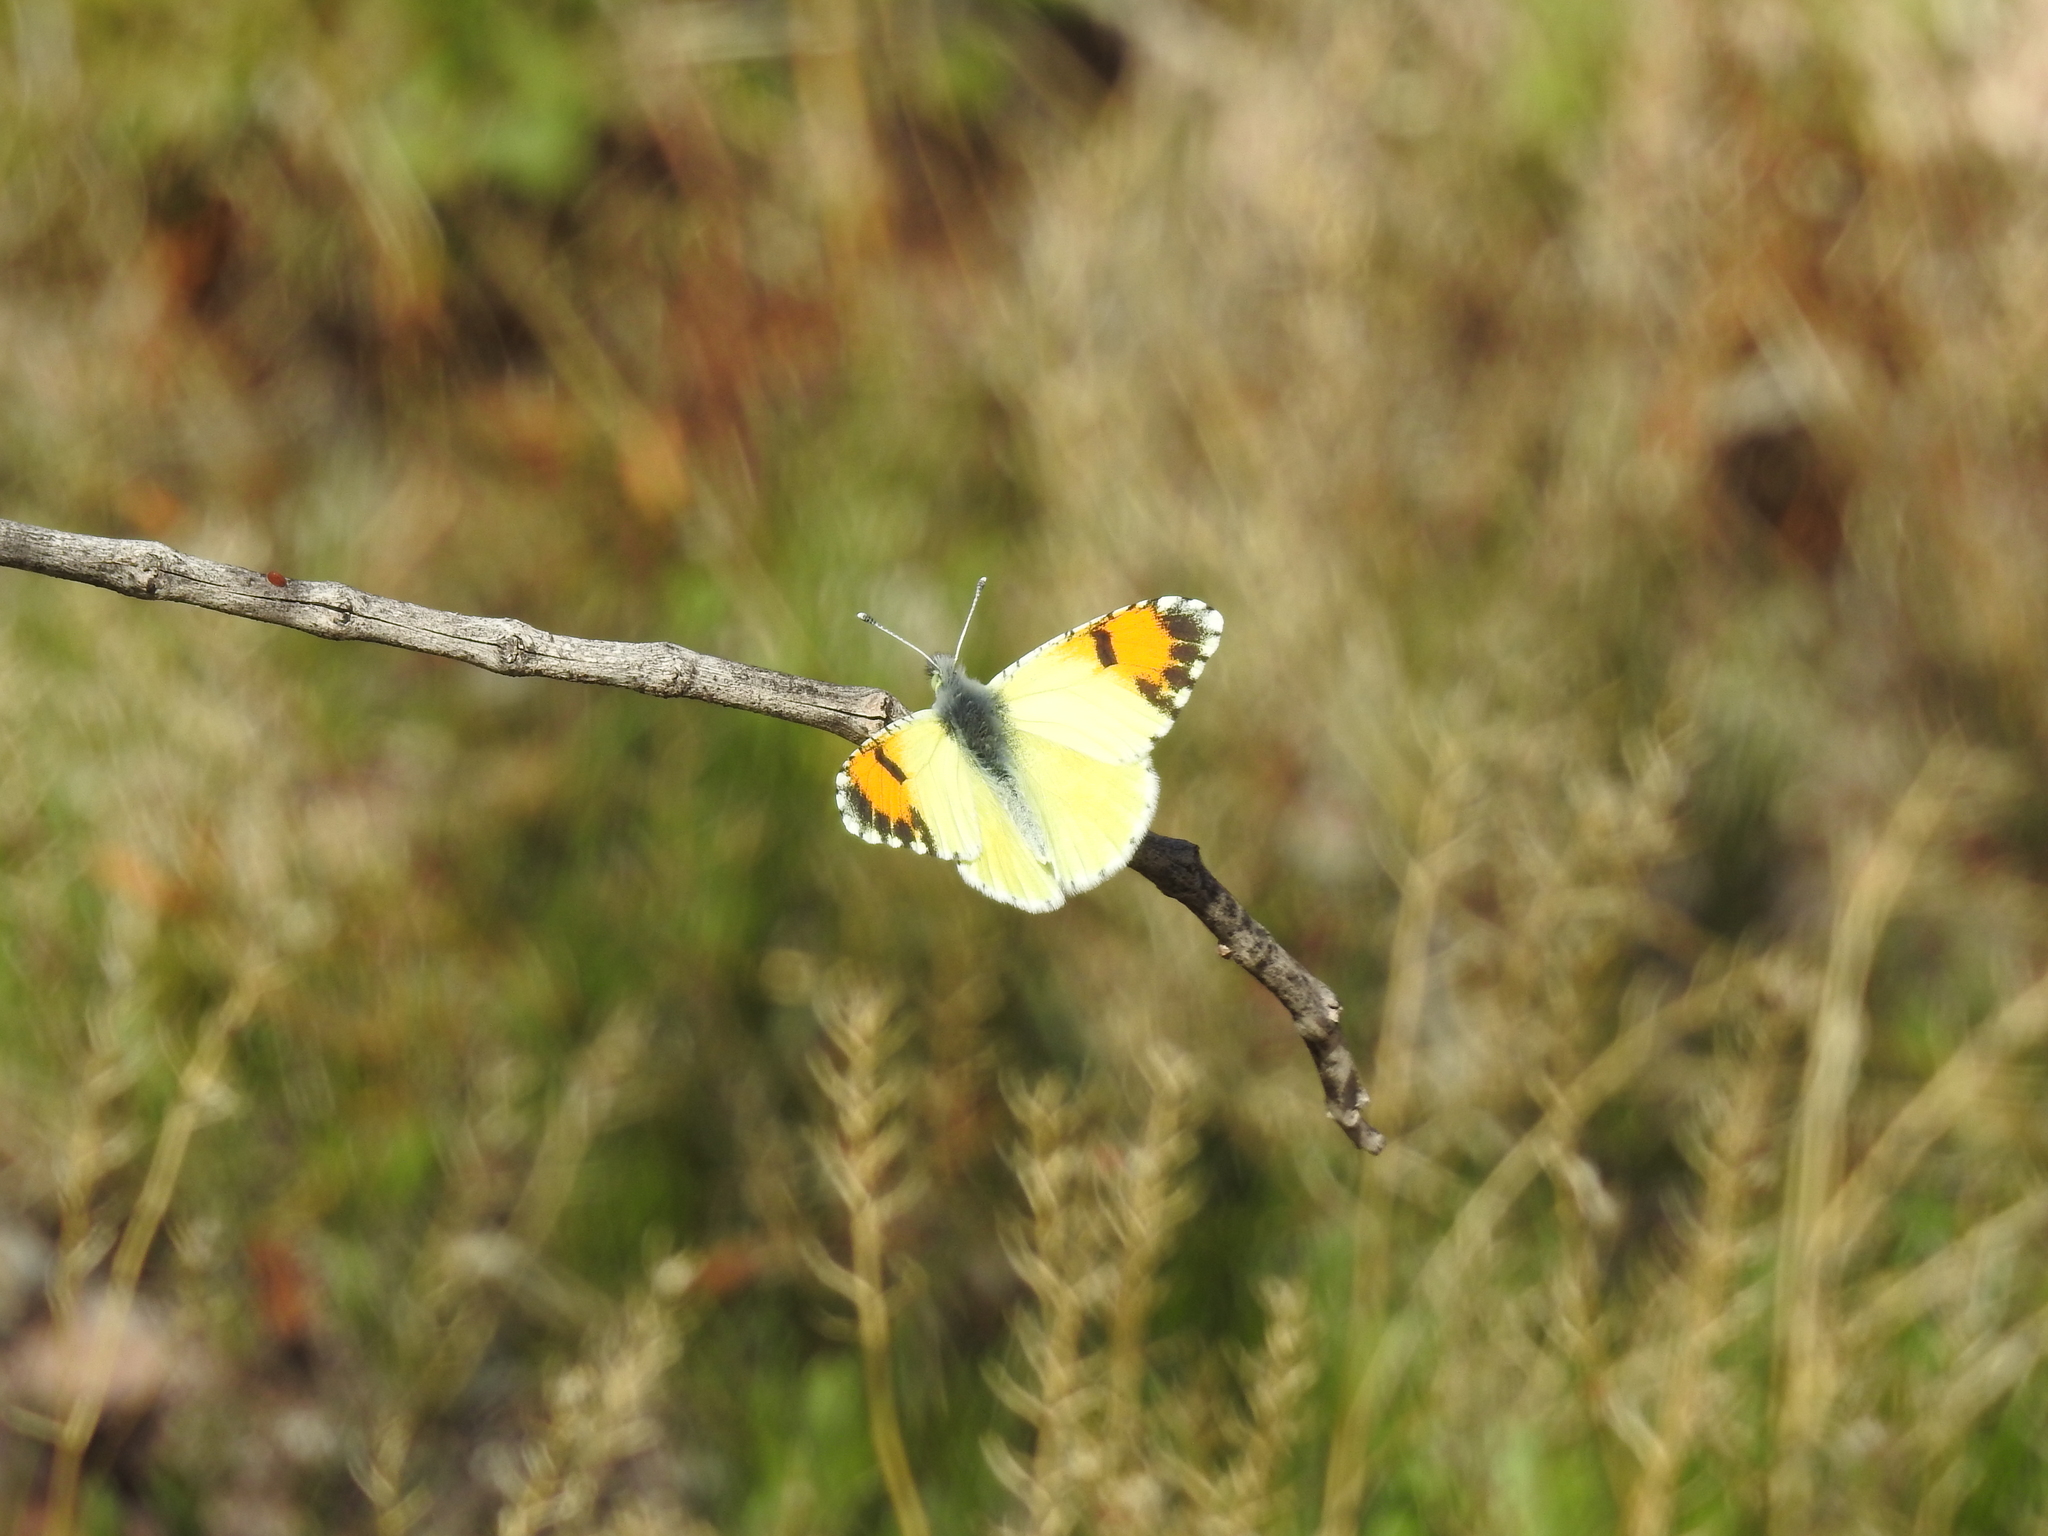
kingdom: Animalia
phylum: Arthropoda
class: Insecta
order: Lepidoptera
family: Pieridae
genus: Anthocharis
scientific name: Anthocharis cethura
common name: Desert orangetip
